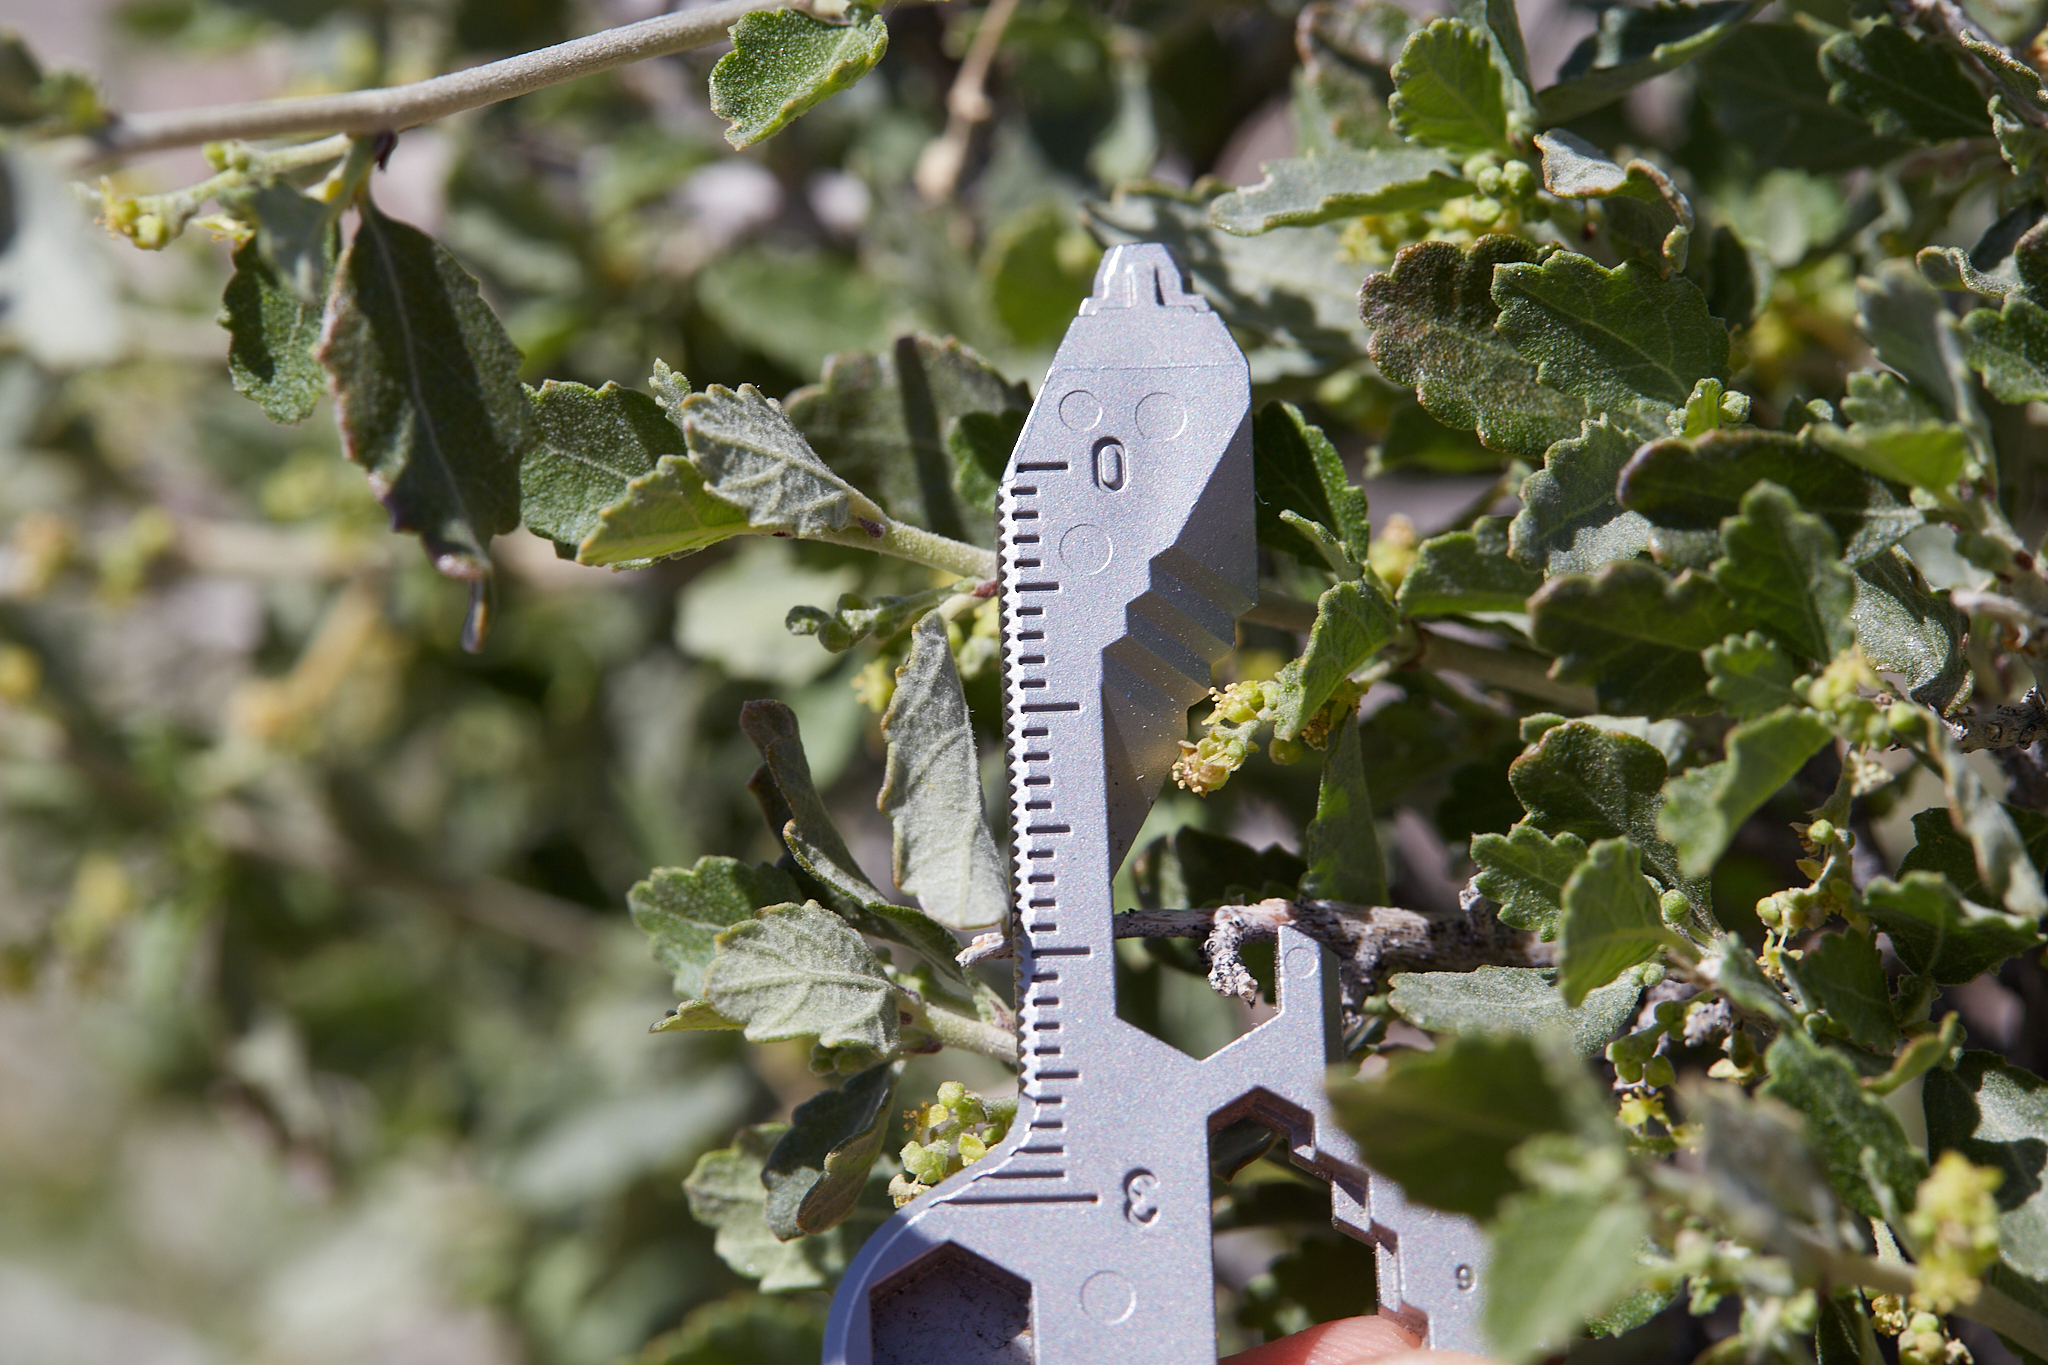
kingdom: Plantae
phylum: Tracheophyta
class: Magnoliopsida
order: Malpighiales
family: Euphorbiaceae
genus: Bernardia
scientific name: Bernardia incana
